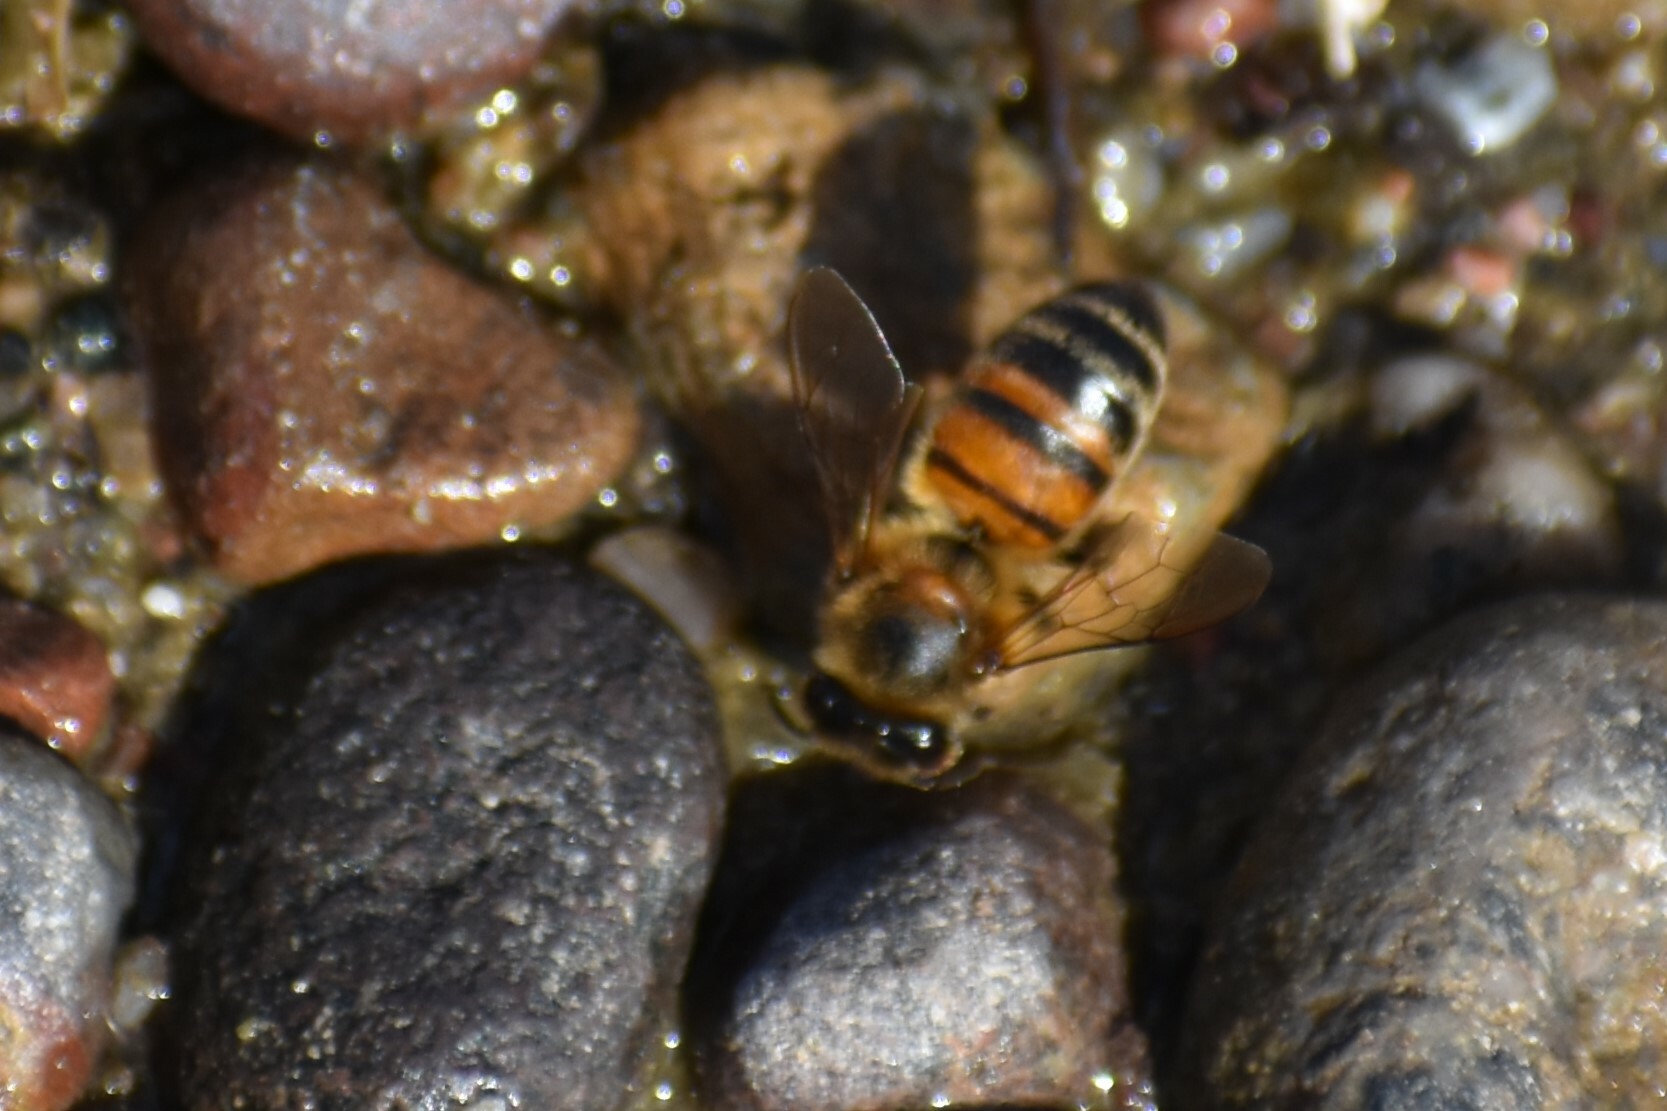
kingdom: Animalia
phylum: Arthropoda
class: Insecta
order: Hymenoptera
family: Apidae
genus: Apis
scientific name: Apis mellifera
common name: Honey bee
